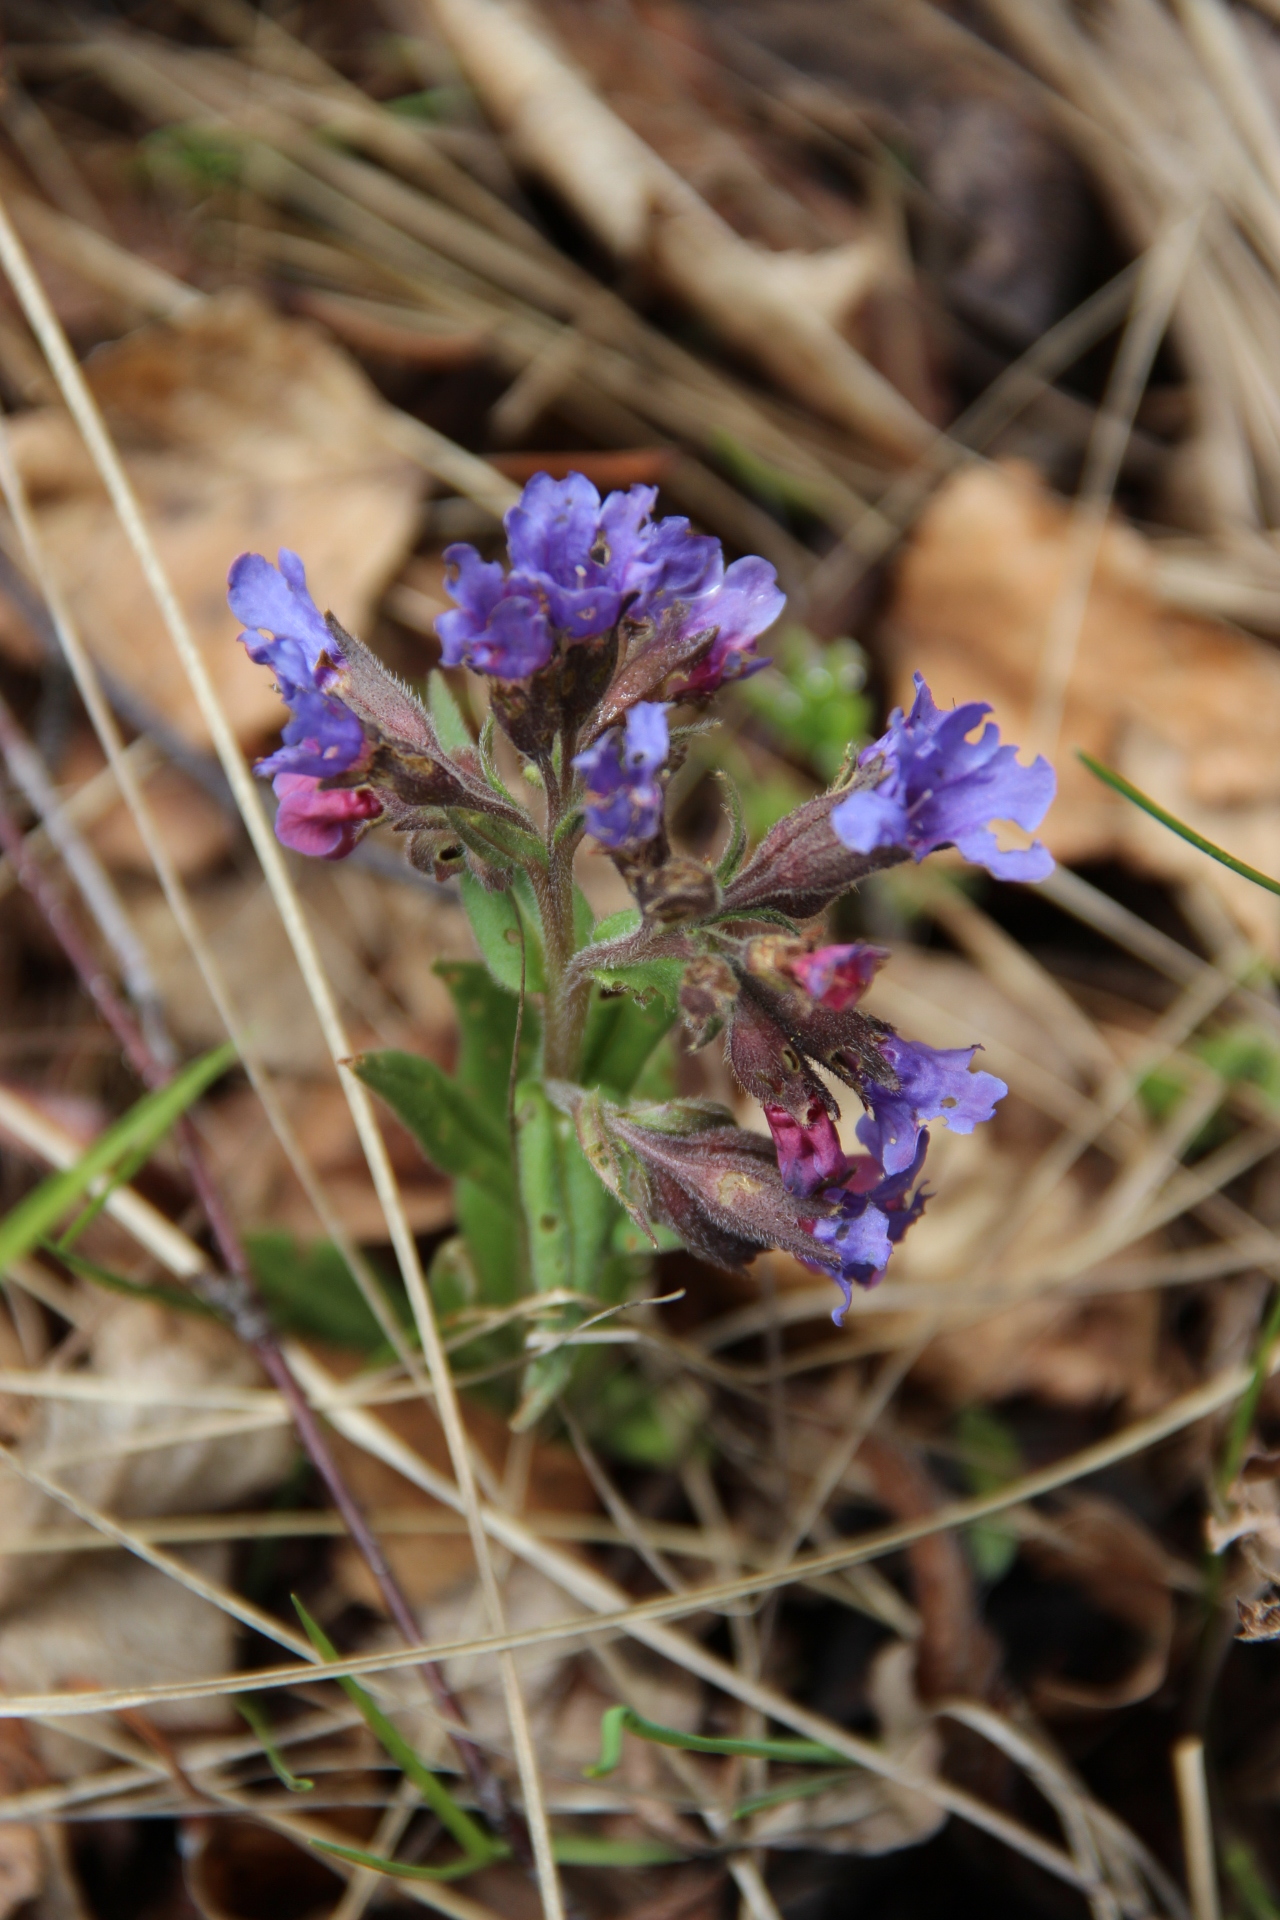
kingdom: Plantae
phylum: Tracheophyta
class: Magnoliopsida
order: Boraginales
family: Boraginaceae
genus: Pulmonaria
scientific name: Pulmonaria angustifolia
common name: Blue cowslip
